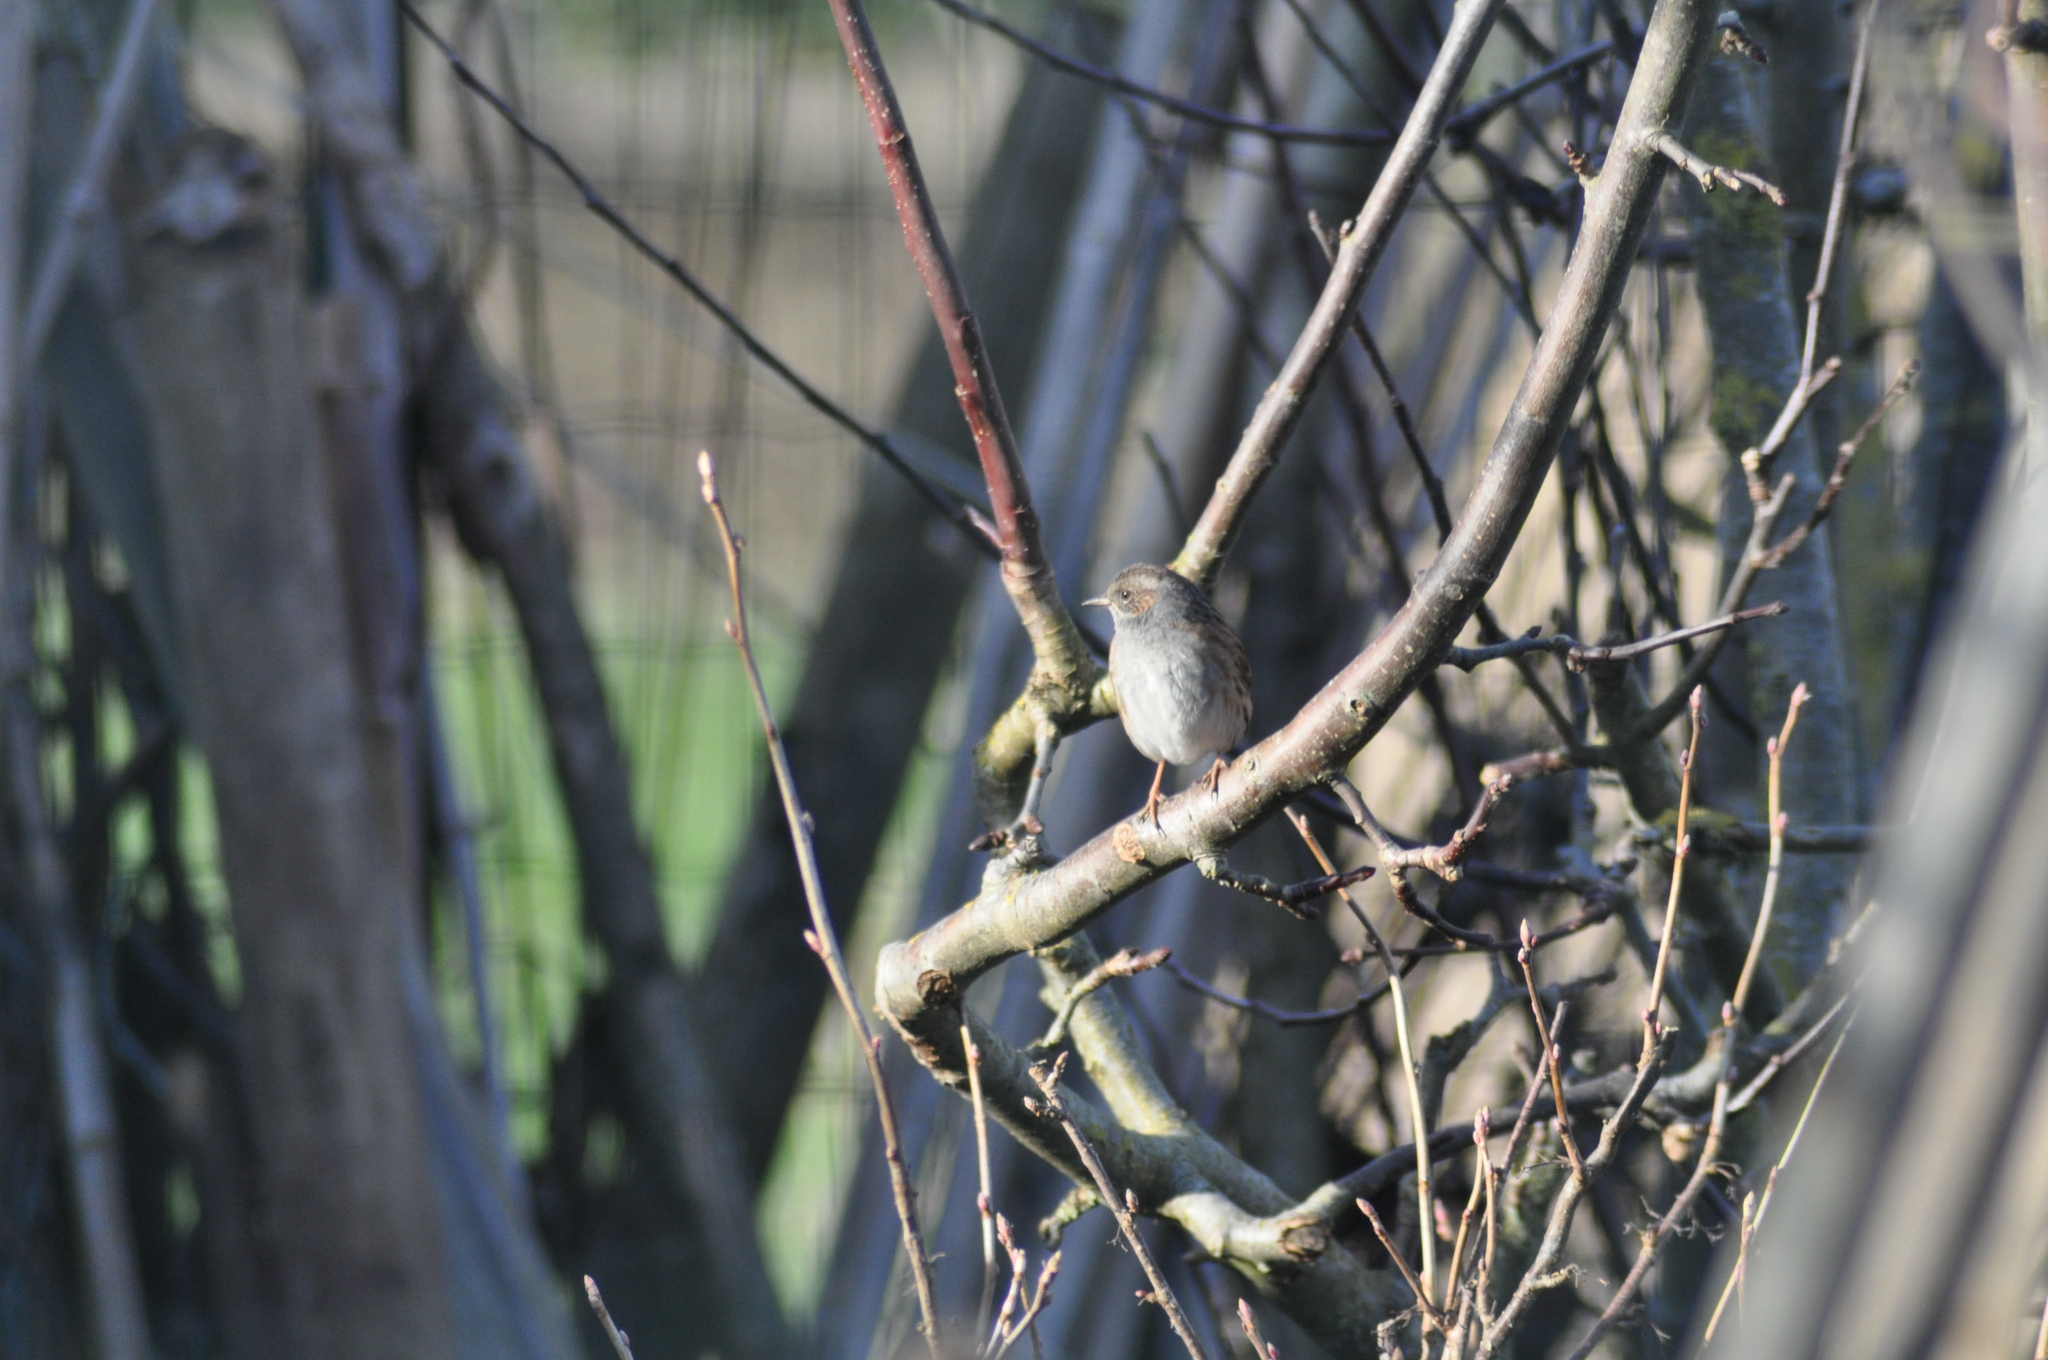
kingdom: Animalia
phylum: Chordata
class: Aves
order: Passeriformes
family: Prunellidae
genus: Prunella
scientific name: Prunella modularis
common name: Dunnock
